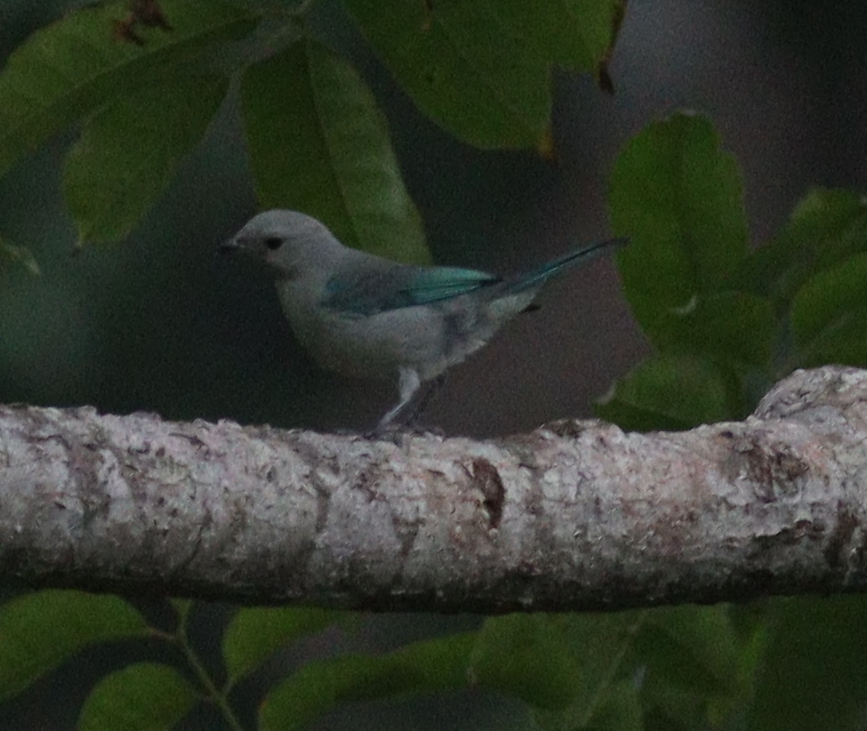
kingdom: Animalia
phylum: Chordata
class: Aves
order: Passeriformes
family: Thraupidae
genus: Thraupis
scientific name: Thraupis episcopus
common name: Blue-grey tanager
